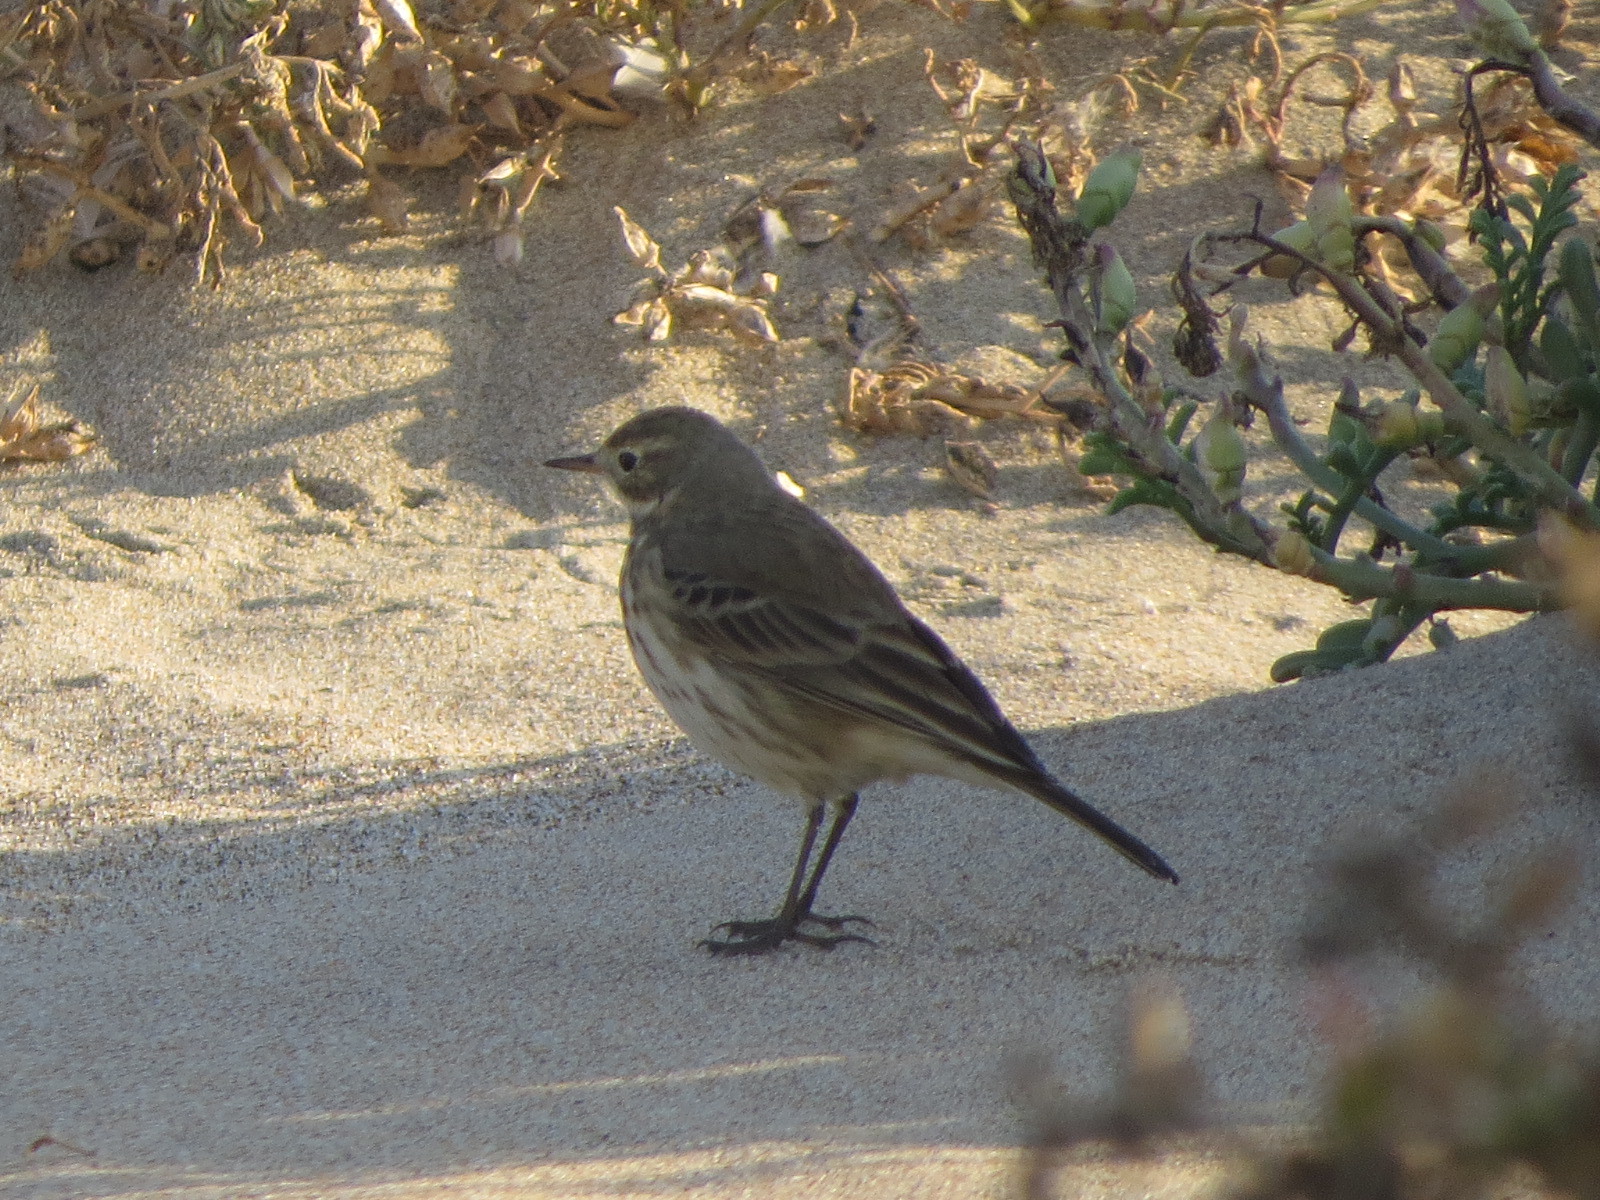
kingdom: Animalia
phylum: Chordata
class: Aves
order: Passeriformes
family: Motacillidae
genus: Anthus
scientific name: Anthus rubescens
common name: Buff-bellied pipit
